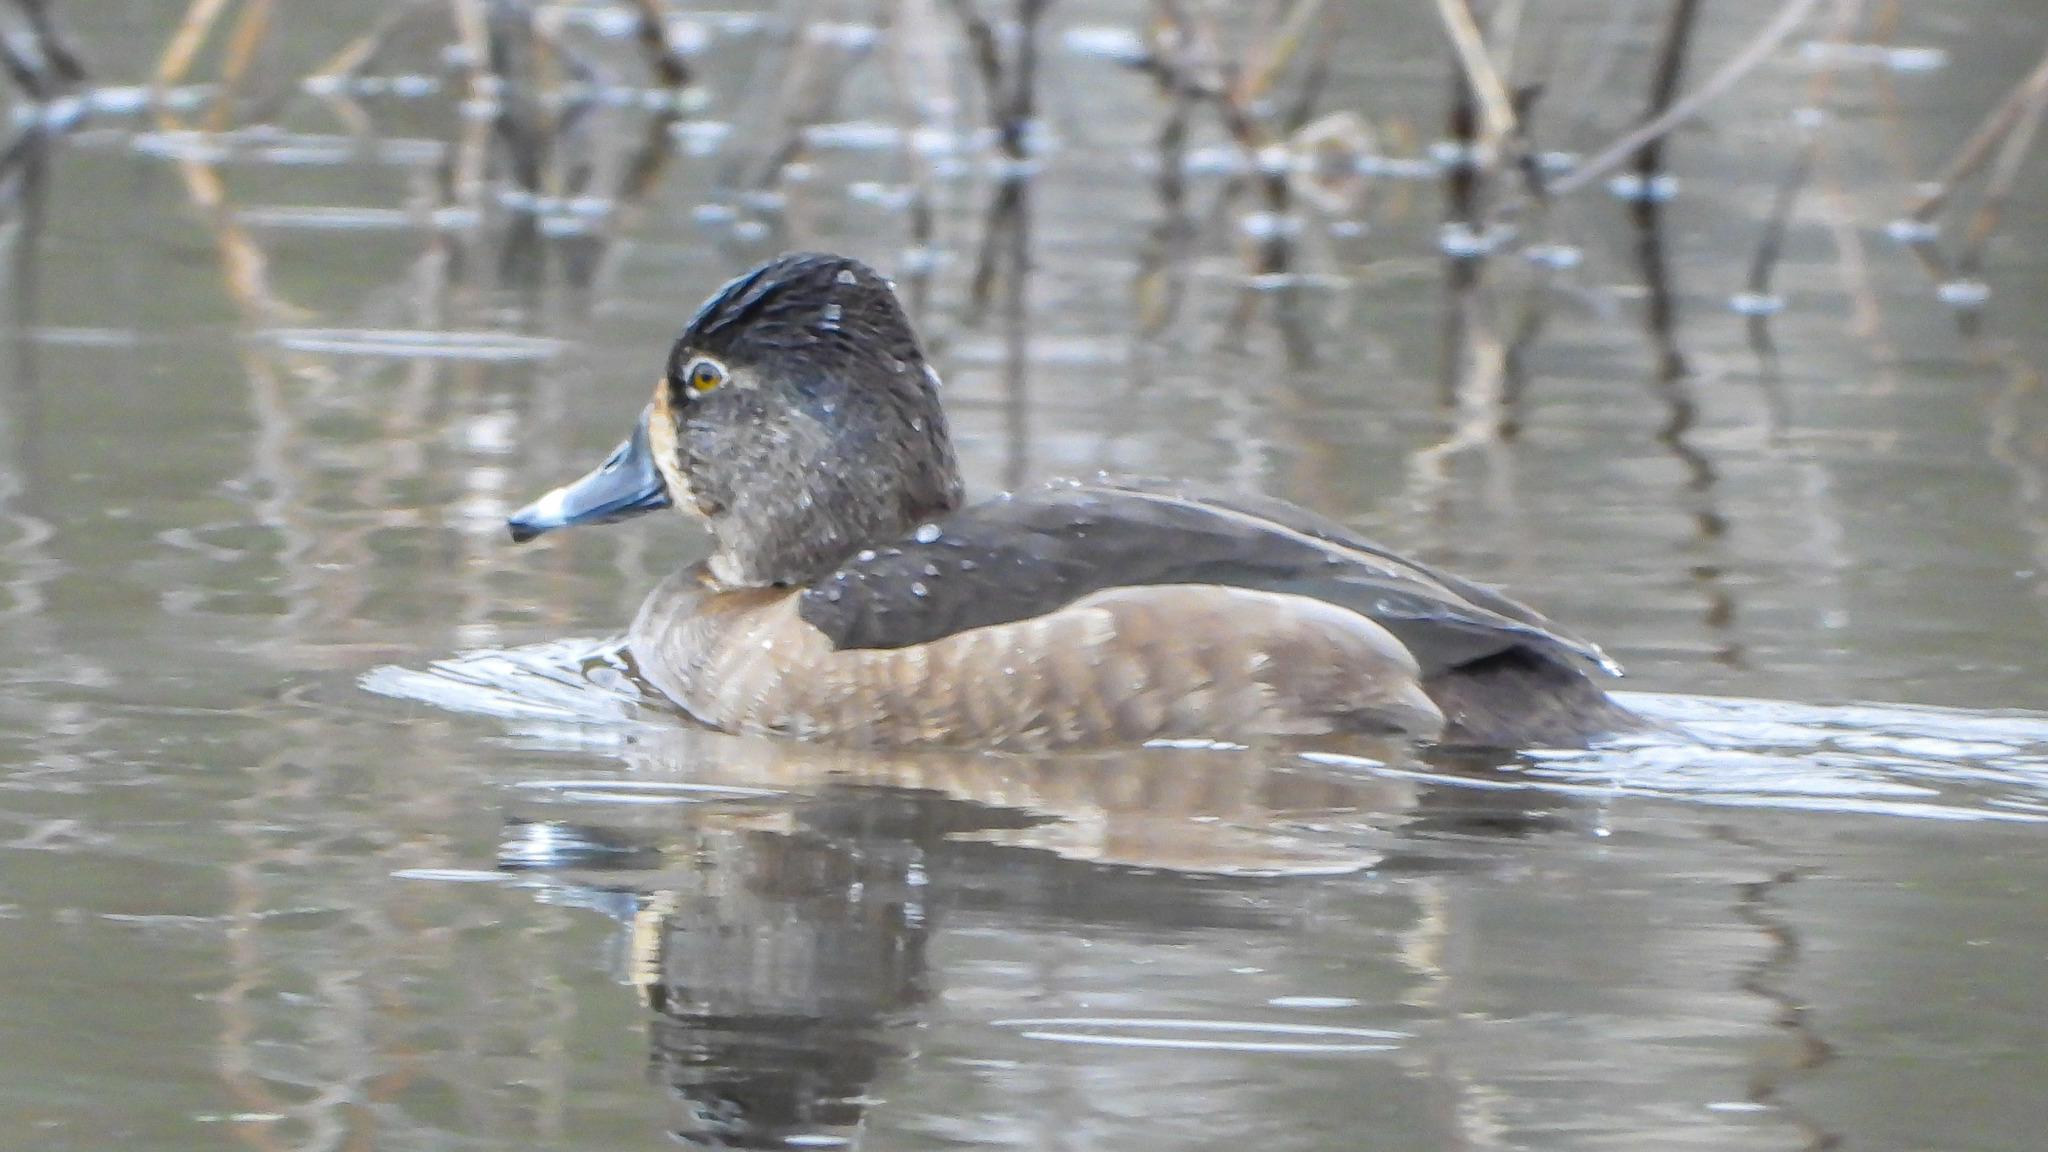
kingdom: Animalia
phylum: Chordata
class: Aves
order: Anseriformes
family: Anatidae
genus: Aythya
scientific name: Aythya collaris
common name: Ring-necked duck
